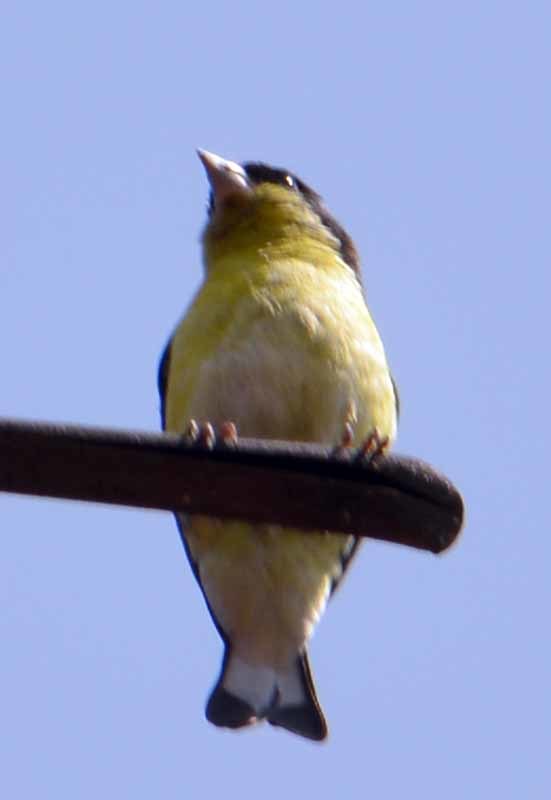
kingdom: Animalia
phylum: Chordata
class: Aves
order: Passeriformes
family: Fringillidae
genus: Spinus
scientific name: Spinus psaltria
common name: Lesser goldfinch
